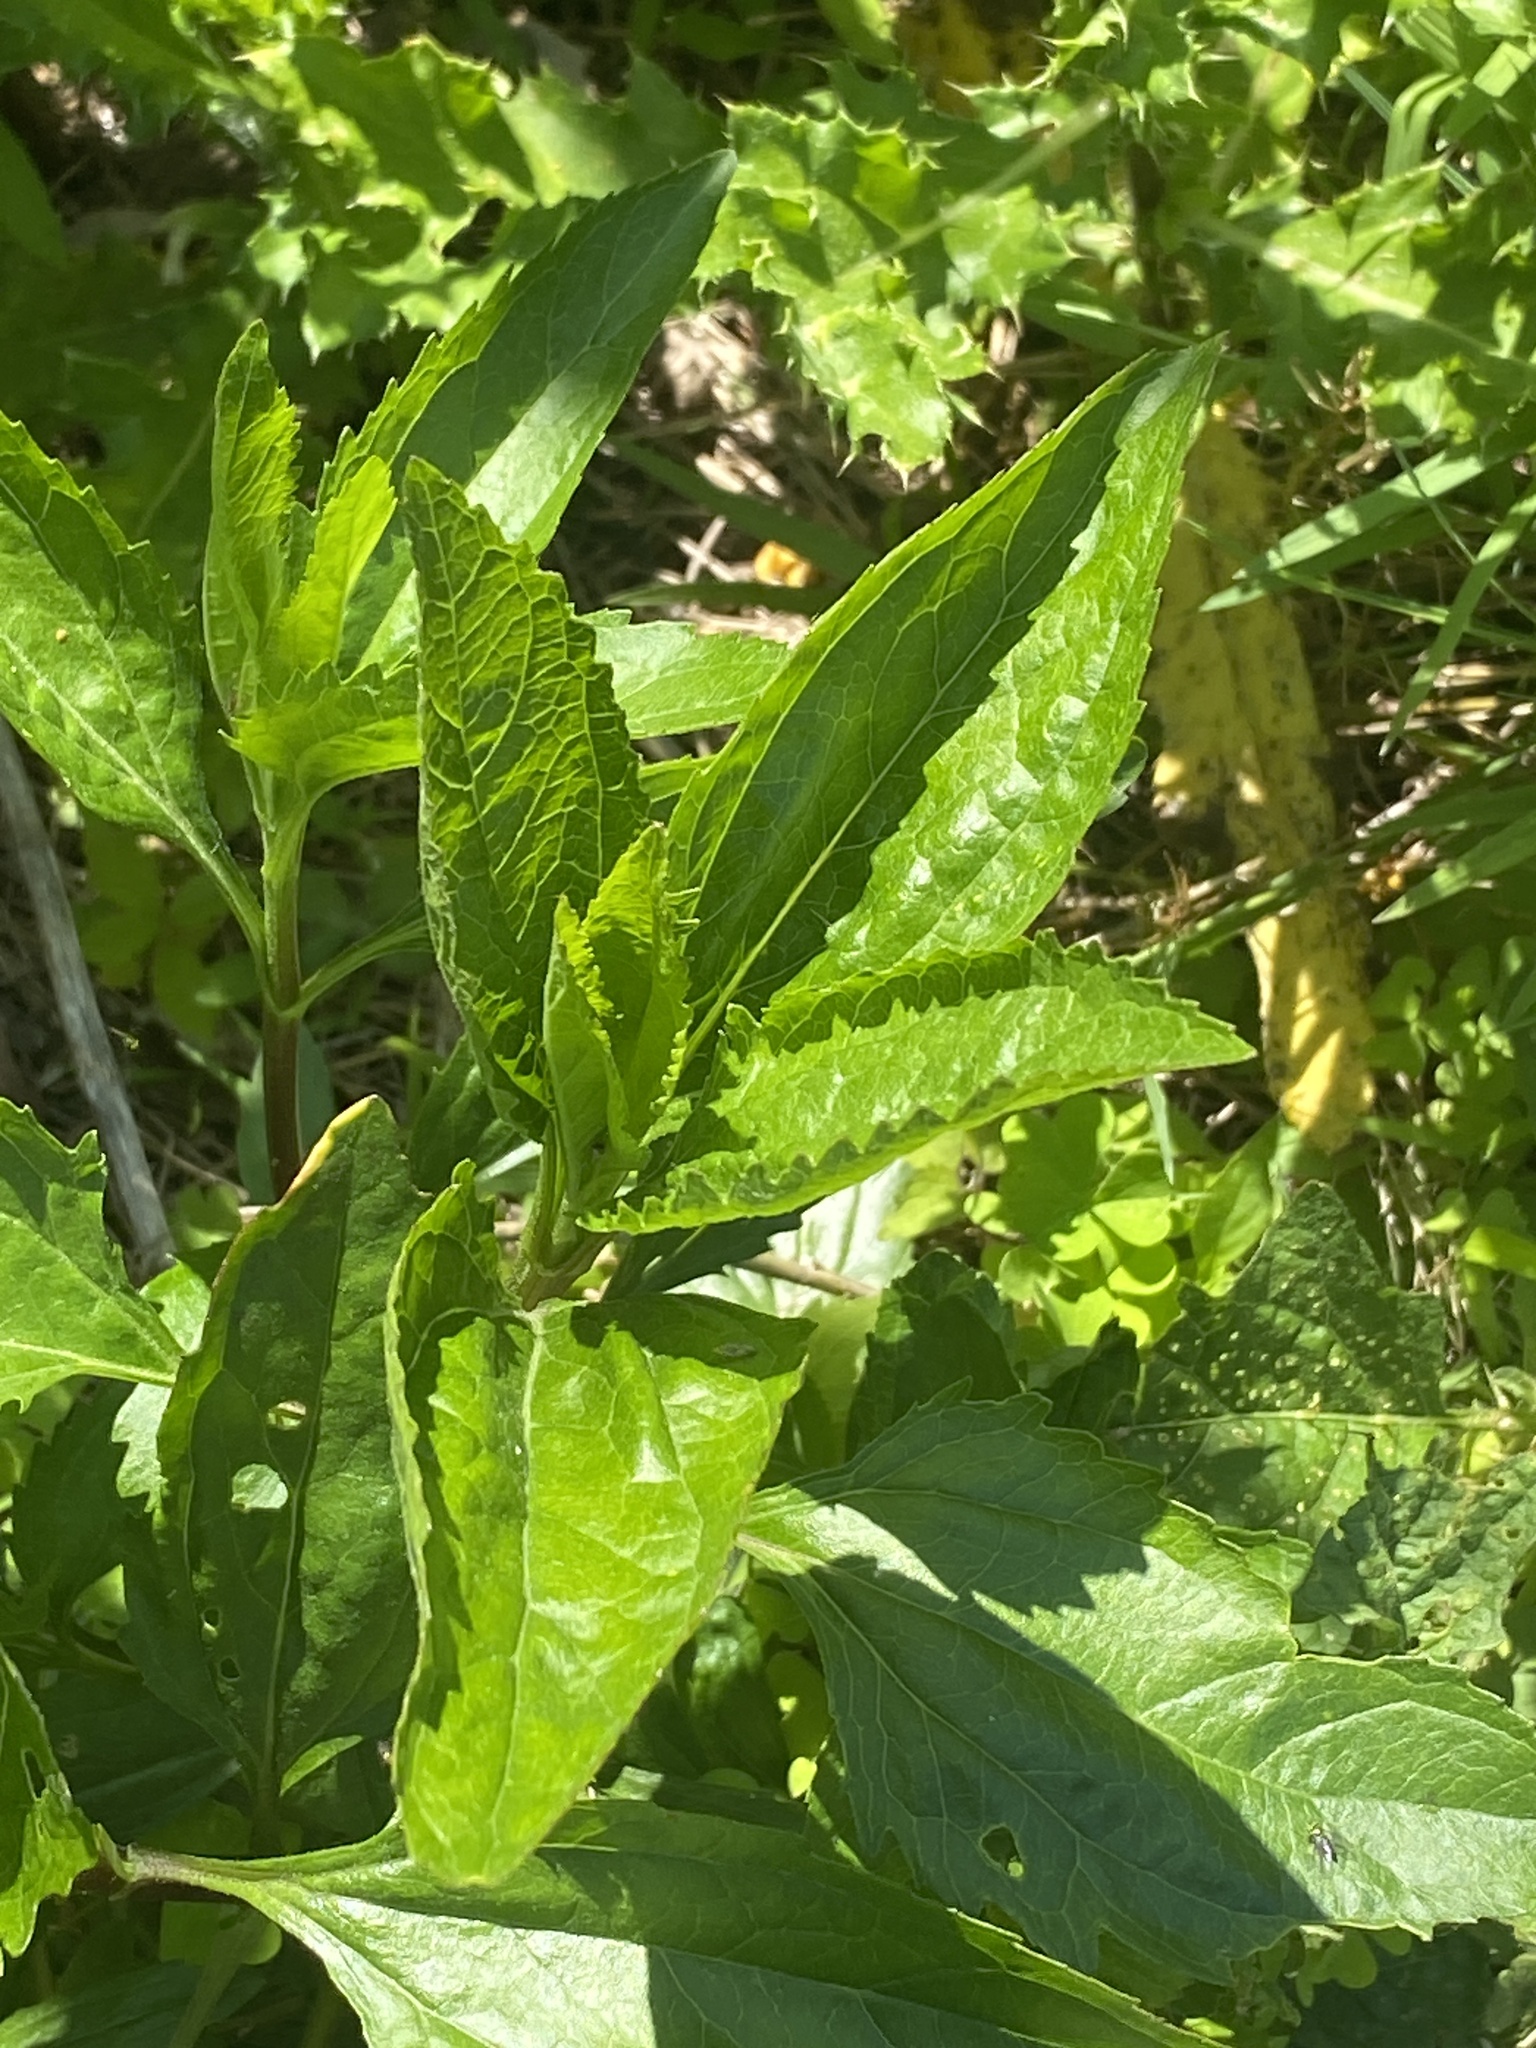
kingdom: Plantae
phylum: Tracheophyta
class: Magnoliopsida
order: Asterales
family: Asteraceae
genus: Eupatorium
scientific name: Eupatorium serotinum
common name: Late boneset
